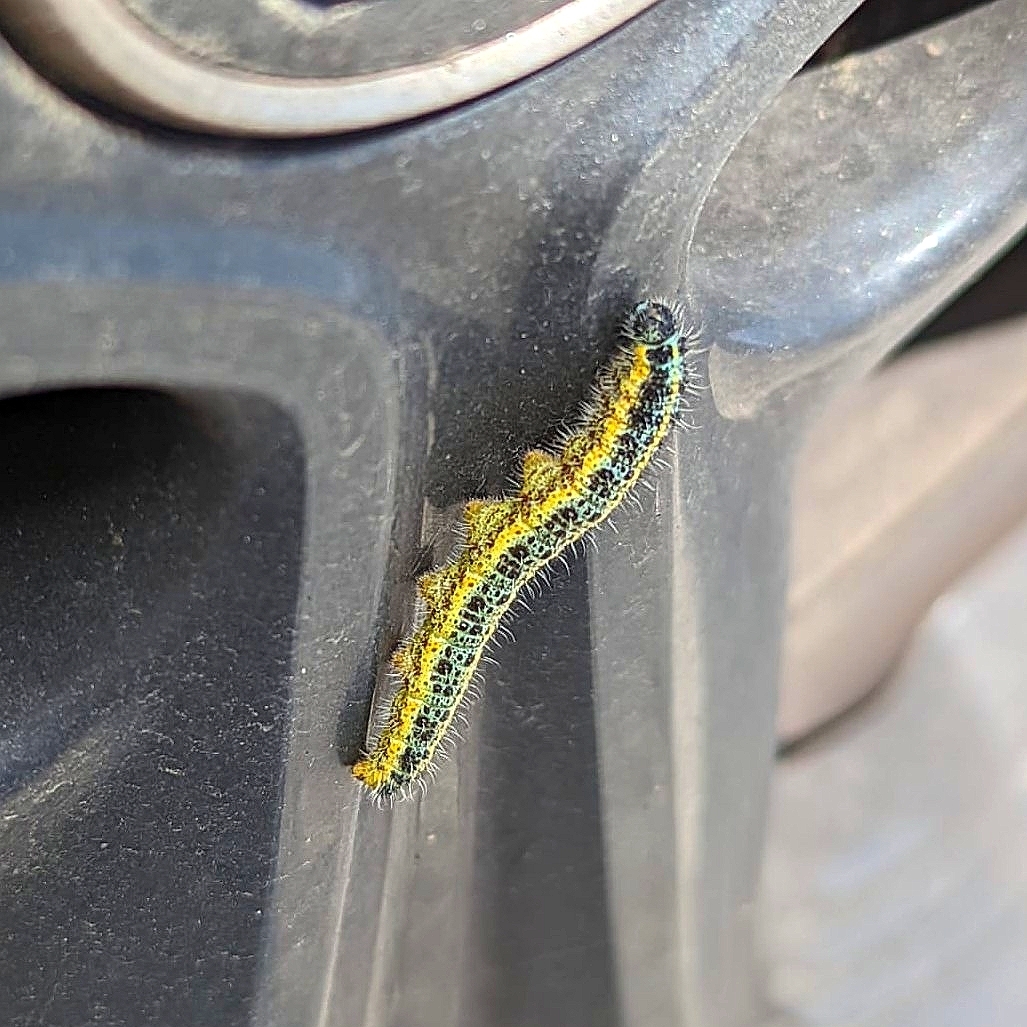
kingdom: Animalia
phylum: Arthropoda
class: Insecta
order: Lepidoptera
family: Pieridae
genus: Pieris
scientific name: Pieris brassicae
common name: Large white
